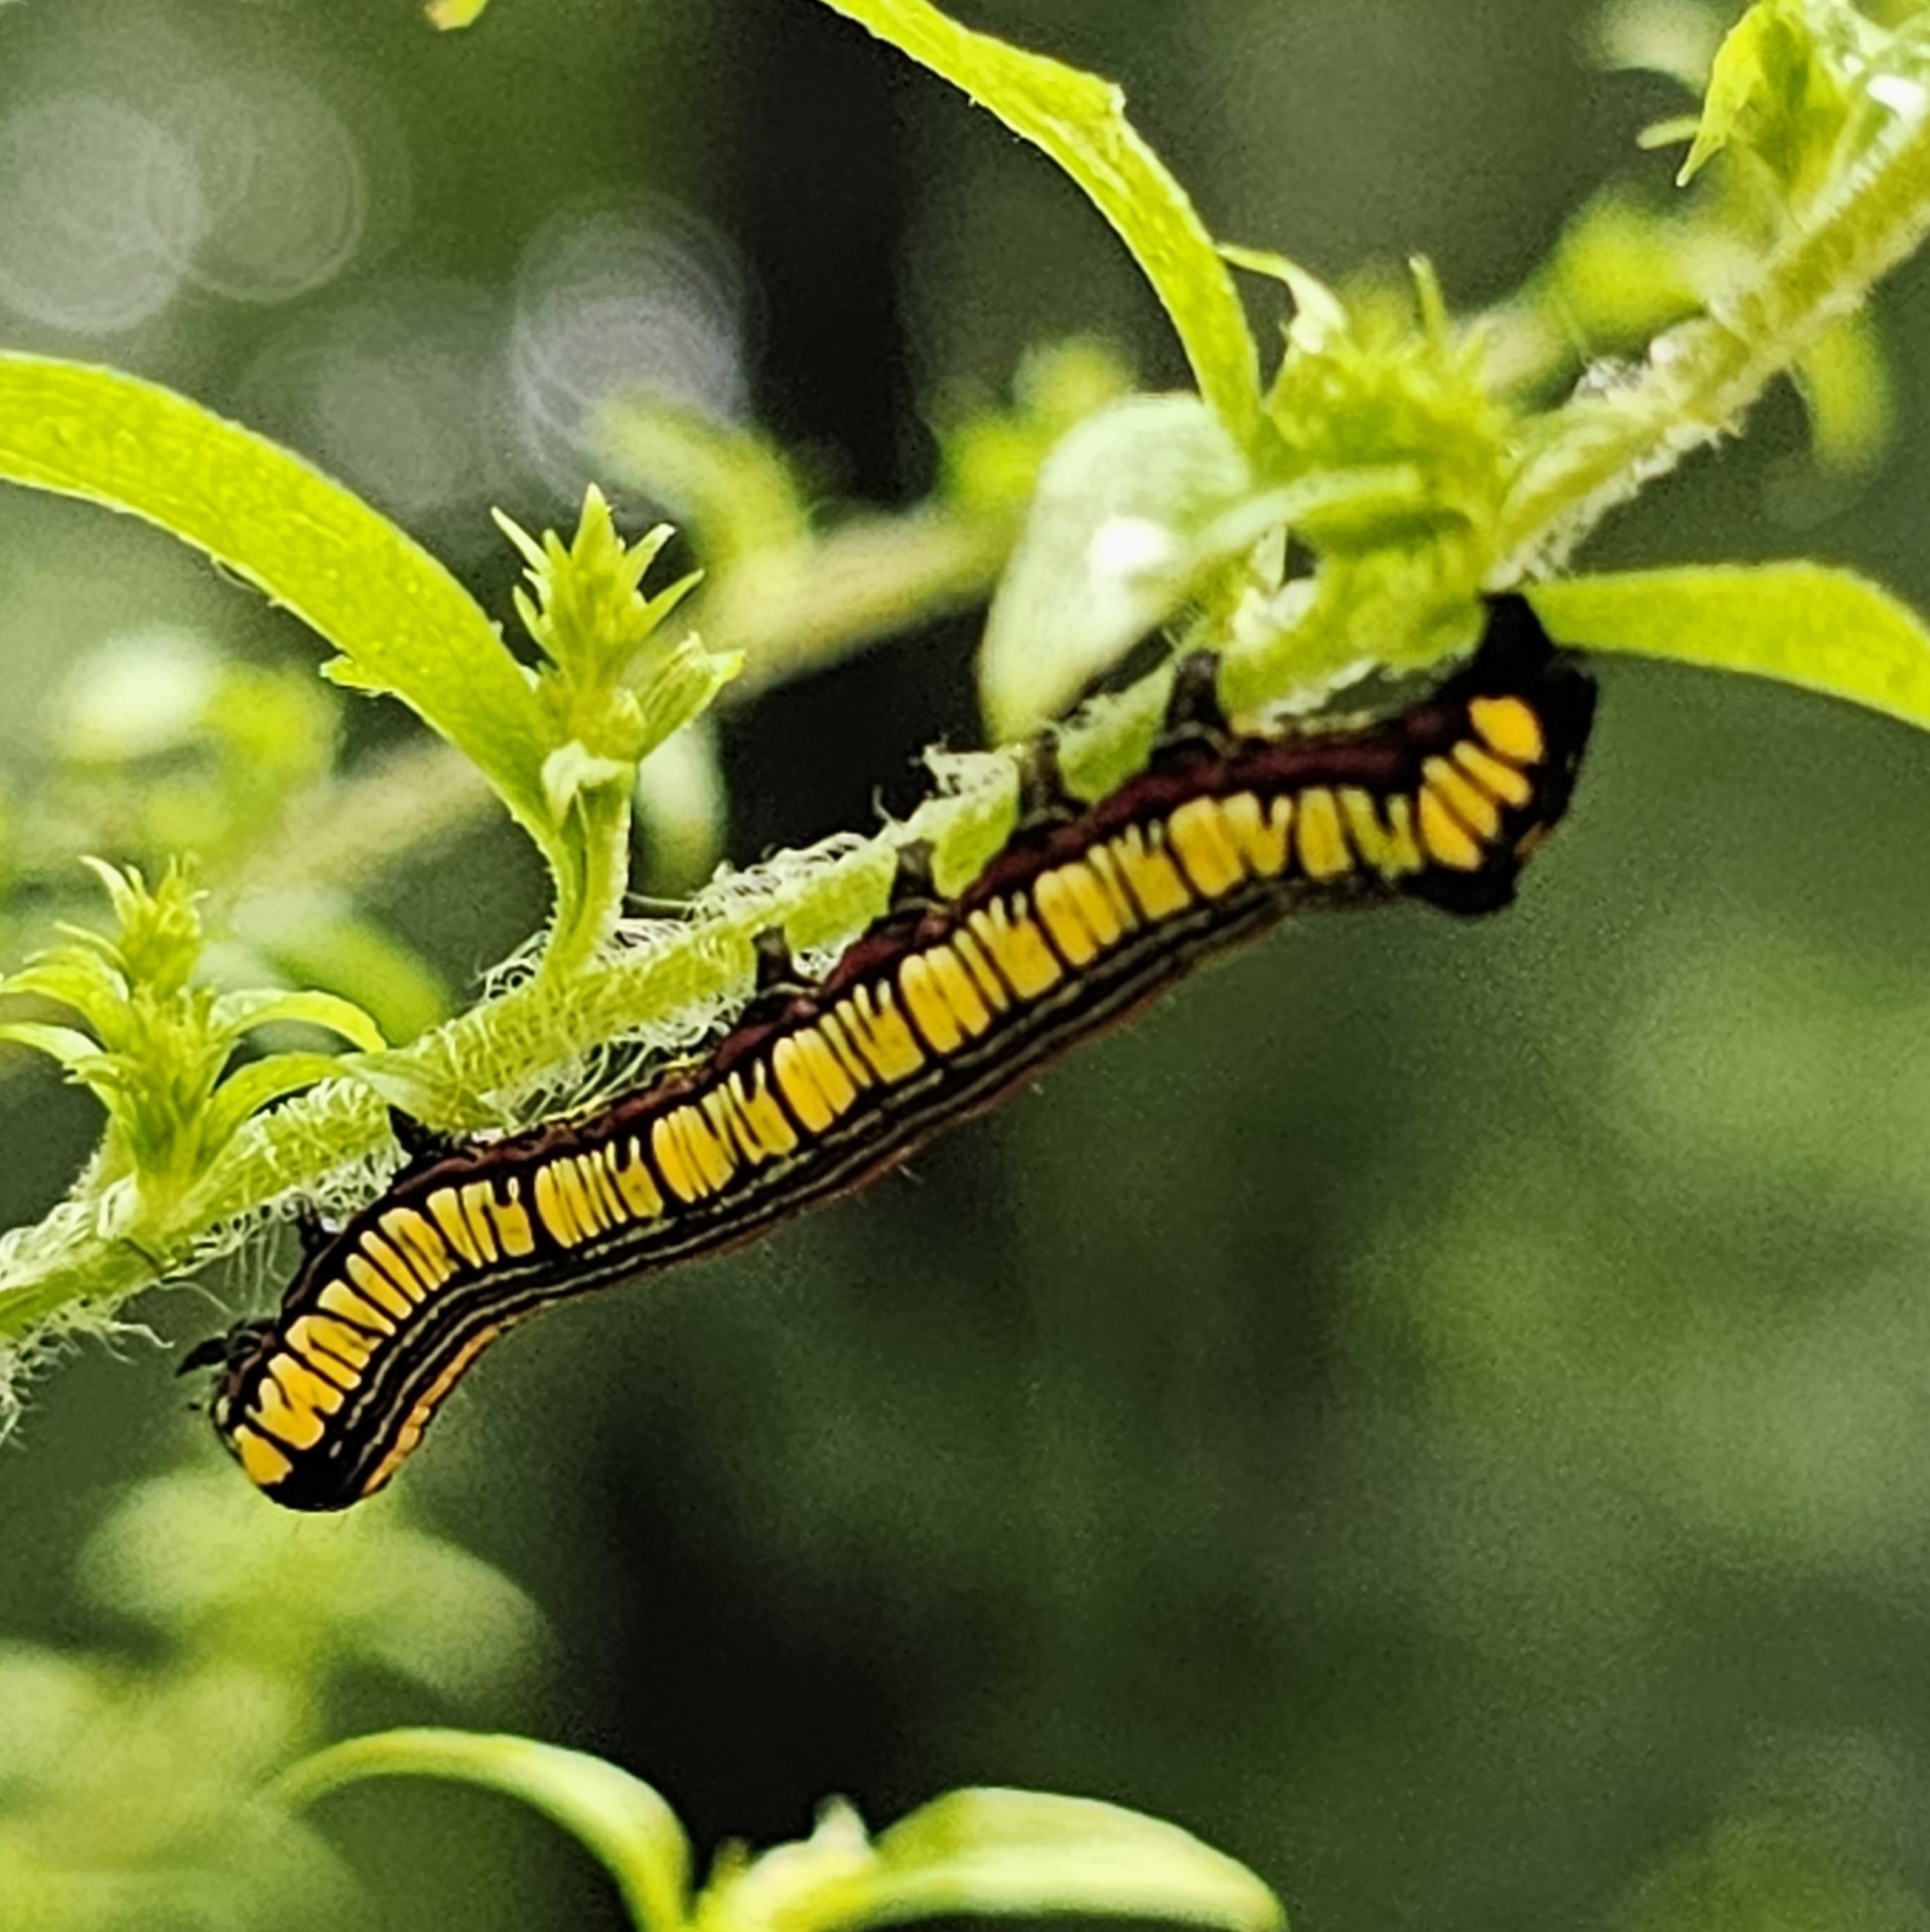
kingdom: Animalia
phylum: Arthropoda
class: Insecta
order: Lepidoptera
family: Noctuidae
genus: Cucullia
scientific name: Cucullia convexipennis
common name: Brown-hooded owlet
